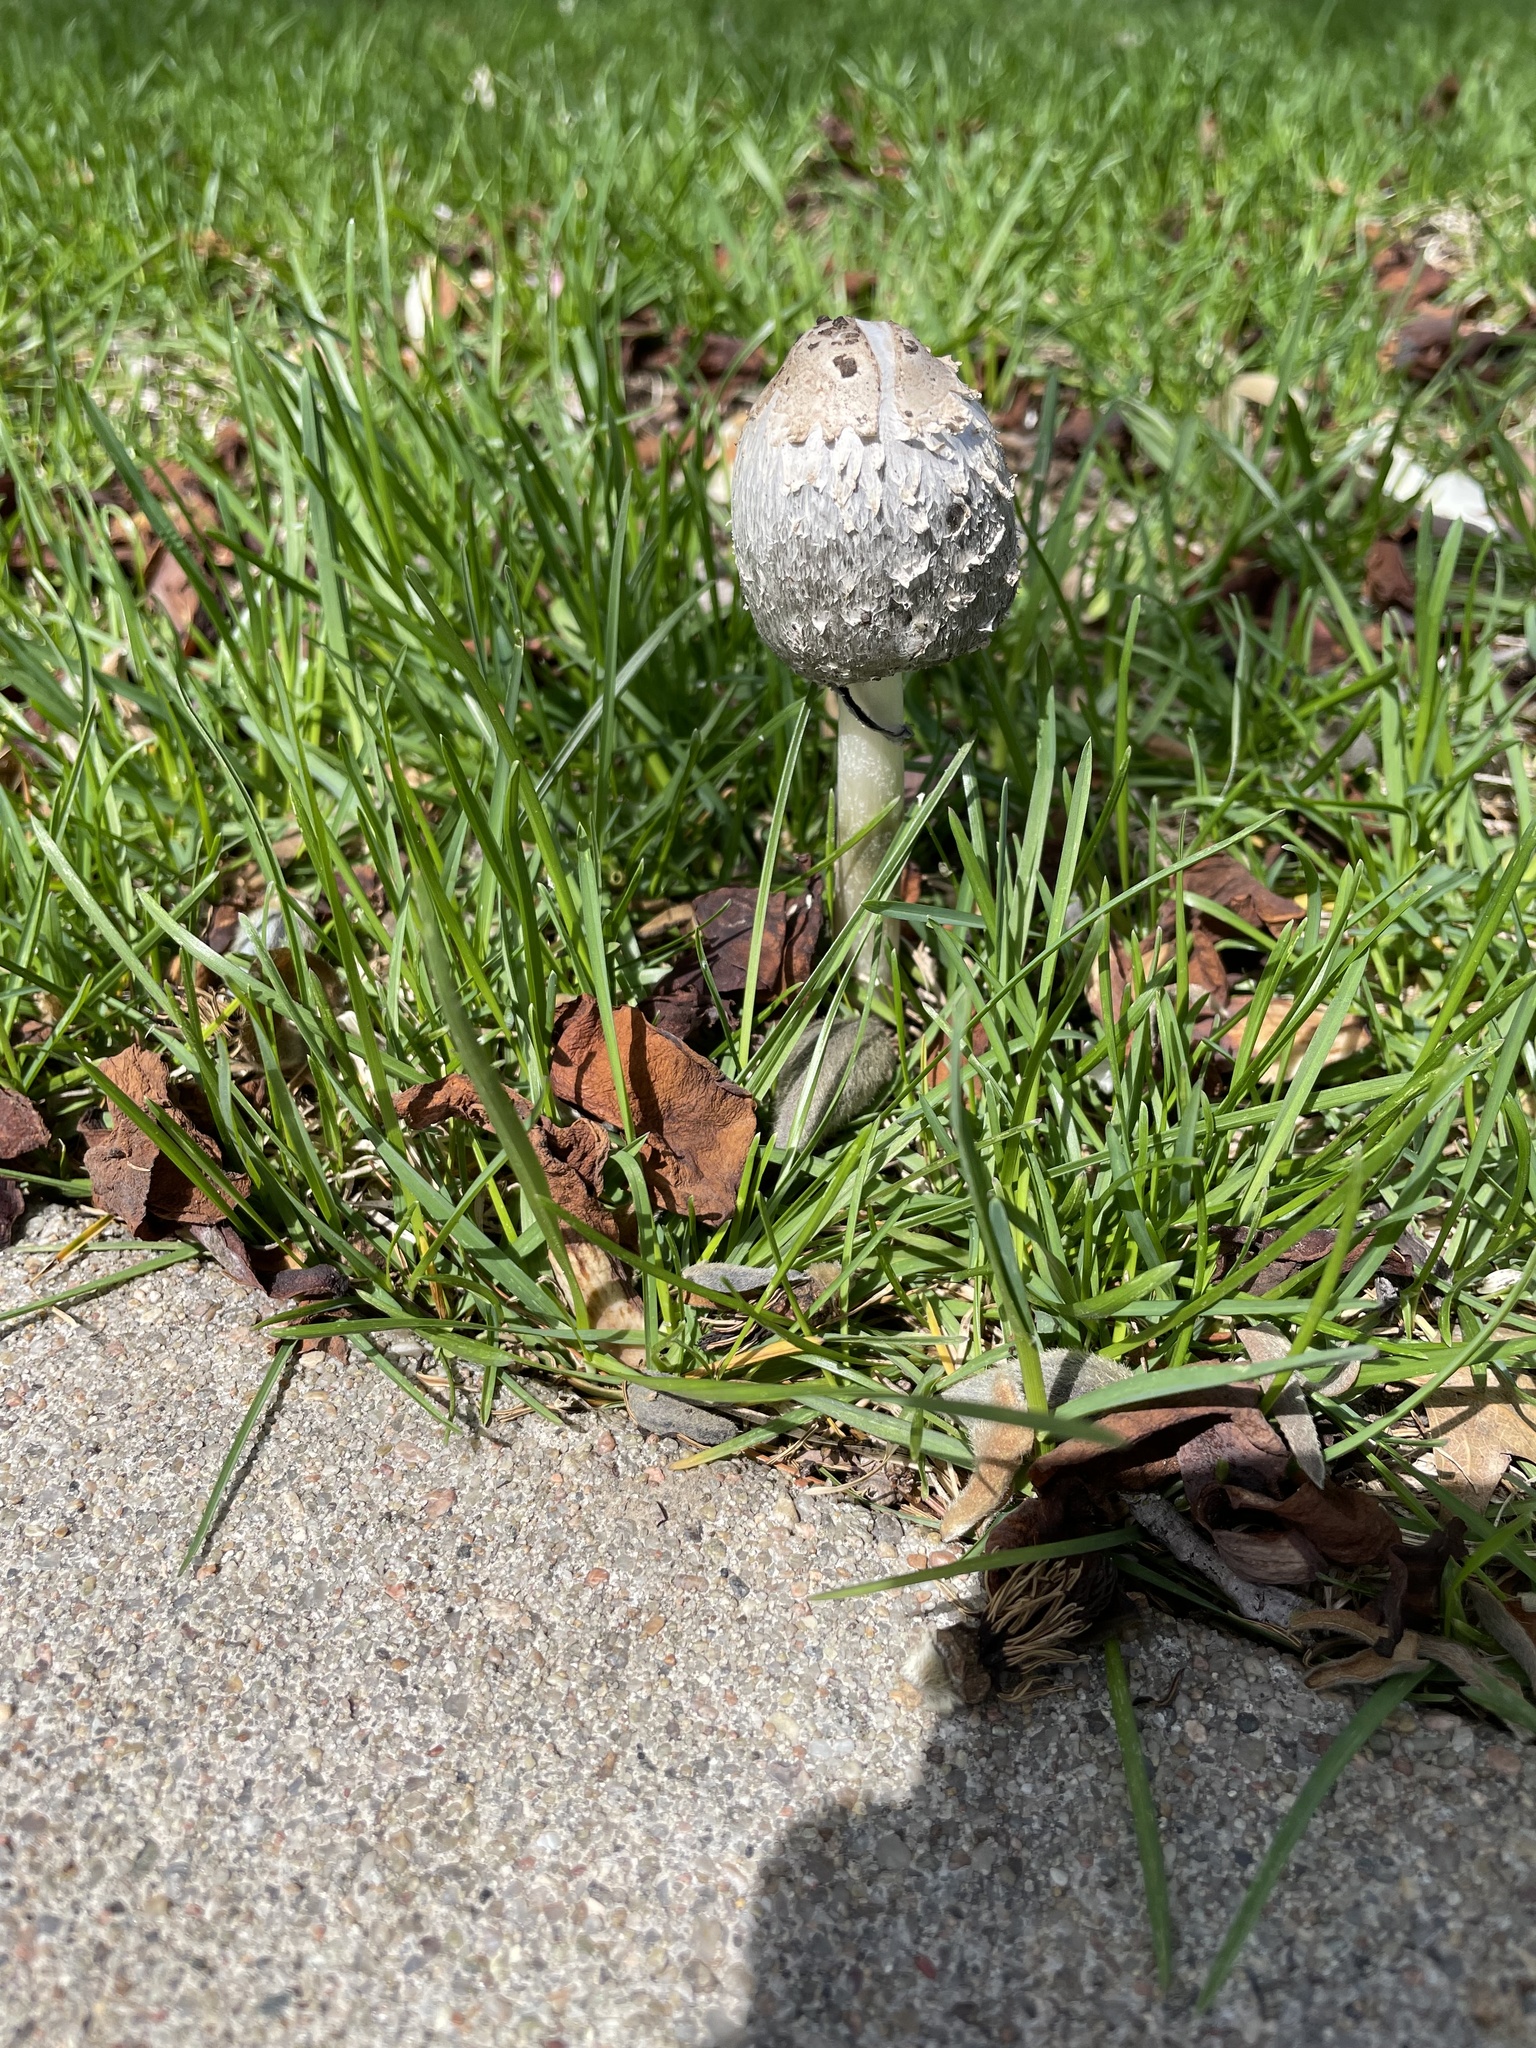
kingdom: Fungi
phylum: Basidiomycota
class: Agaricomycetes
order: Agaricales
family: Agaricaceae
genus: Coprinus
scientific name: Coprinus comatus
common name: Lawyer's wig
